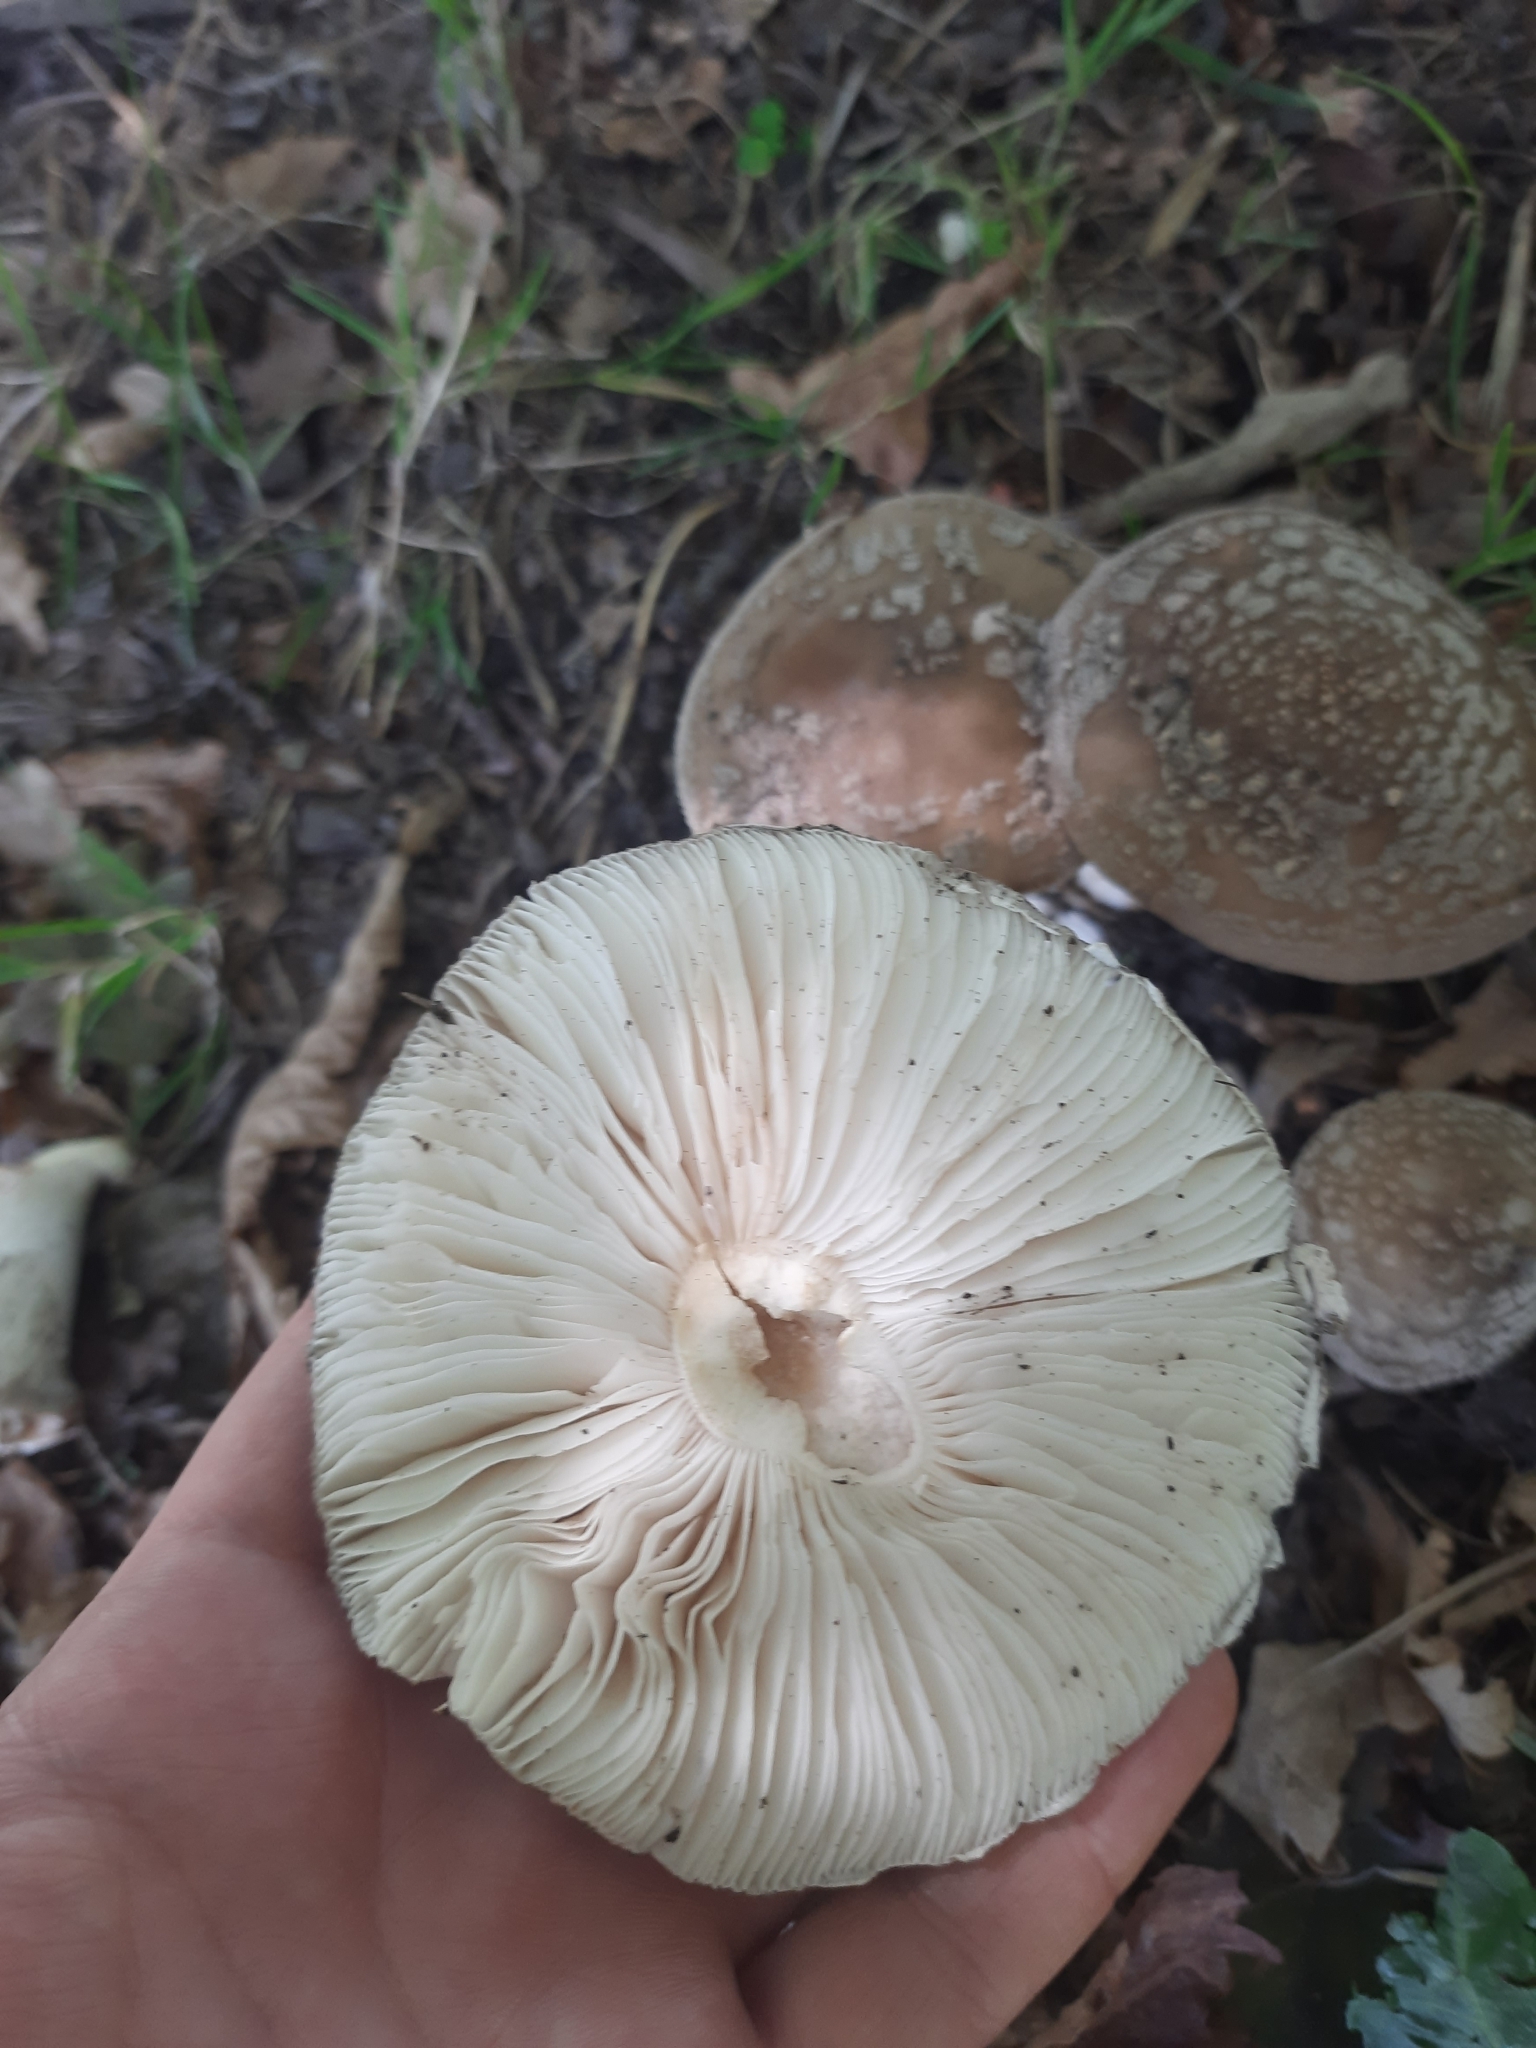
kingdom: Fungi
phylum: Basidiomycota
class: Agaricomycetes
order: Agaricales
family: Amanitaceae
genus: Amanita
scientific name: Amanita excelsa
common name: European false blusher
